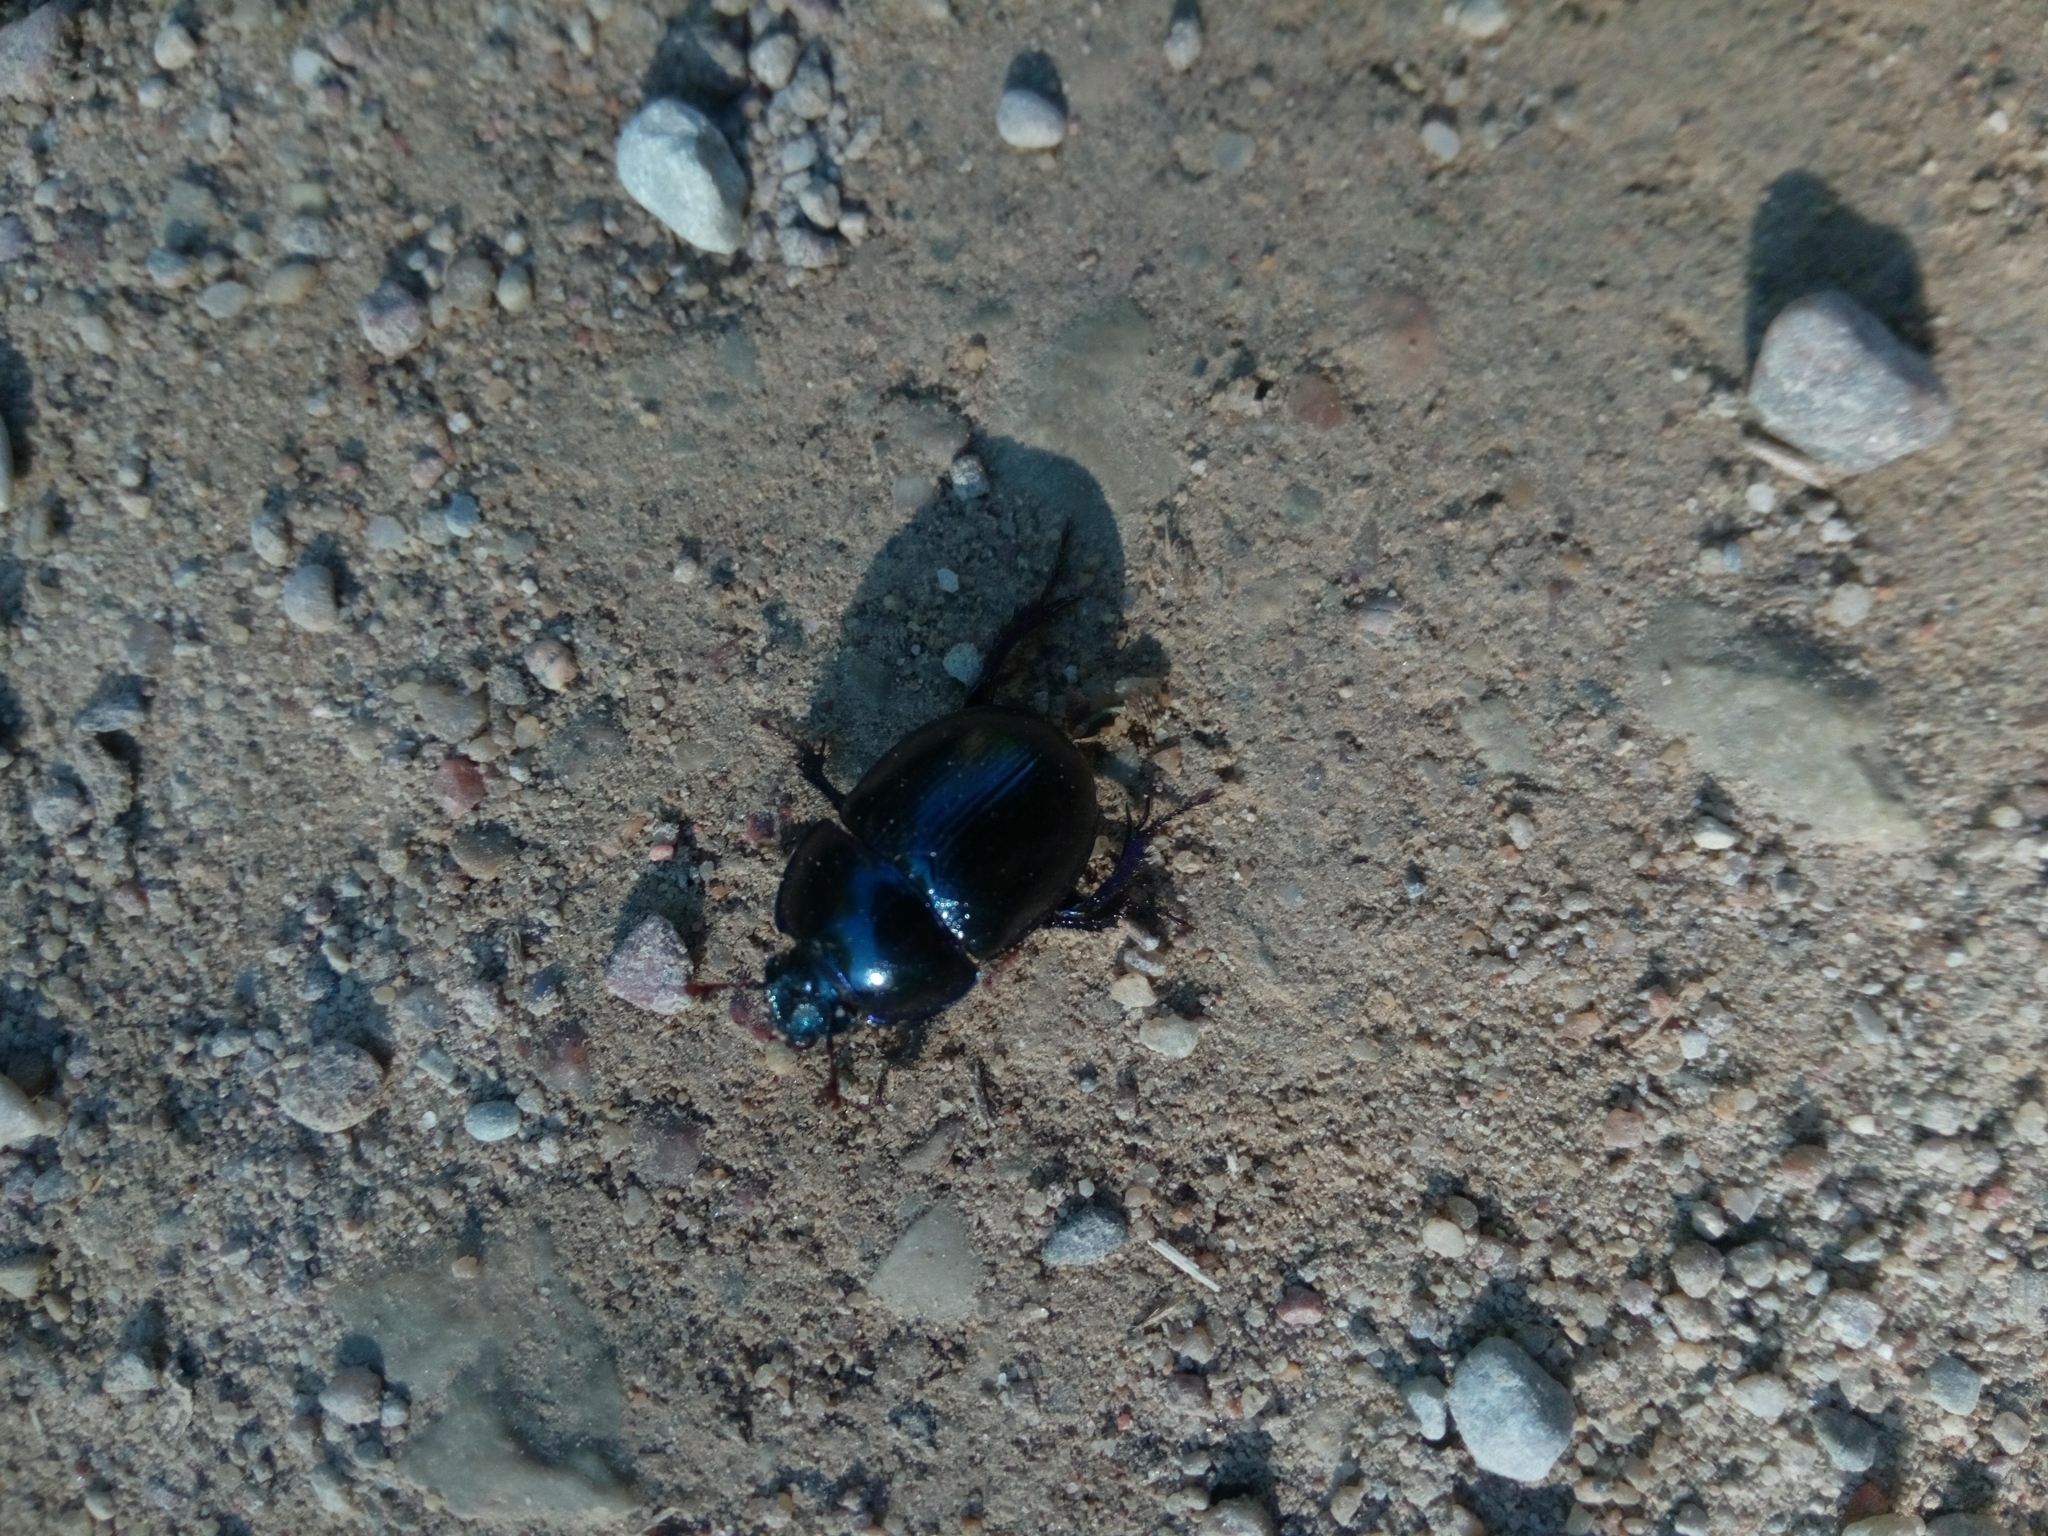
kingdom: Animalia
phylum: Arthropoda
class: Insecta
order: Coleoptera
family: Geotrupidae
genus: Anoplotrupes
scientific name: Anoplotrupes stercorosus
